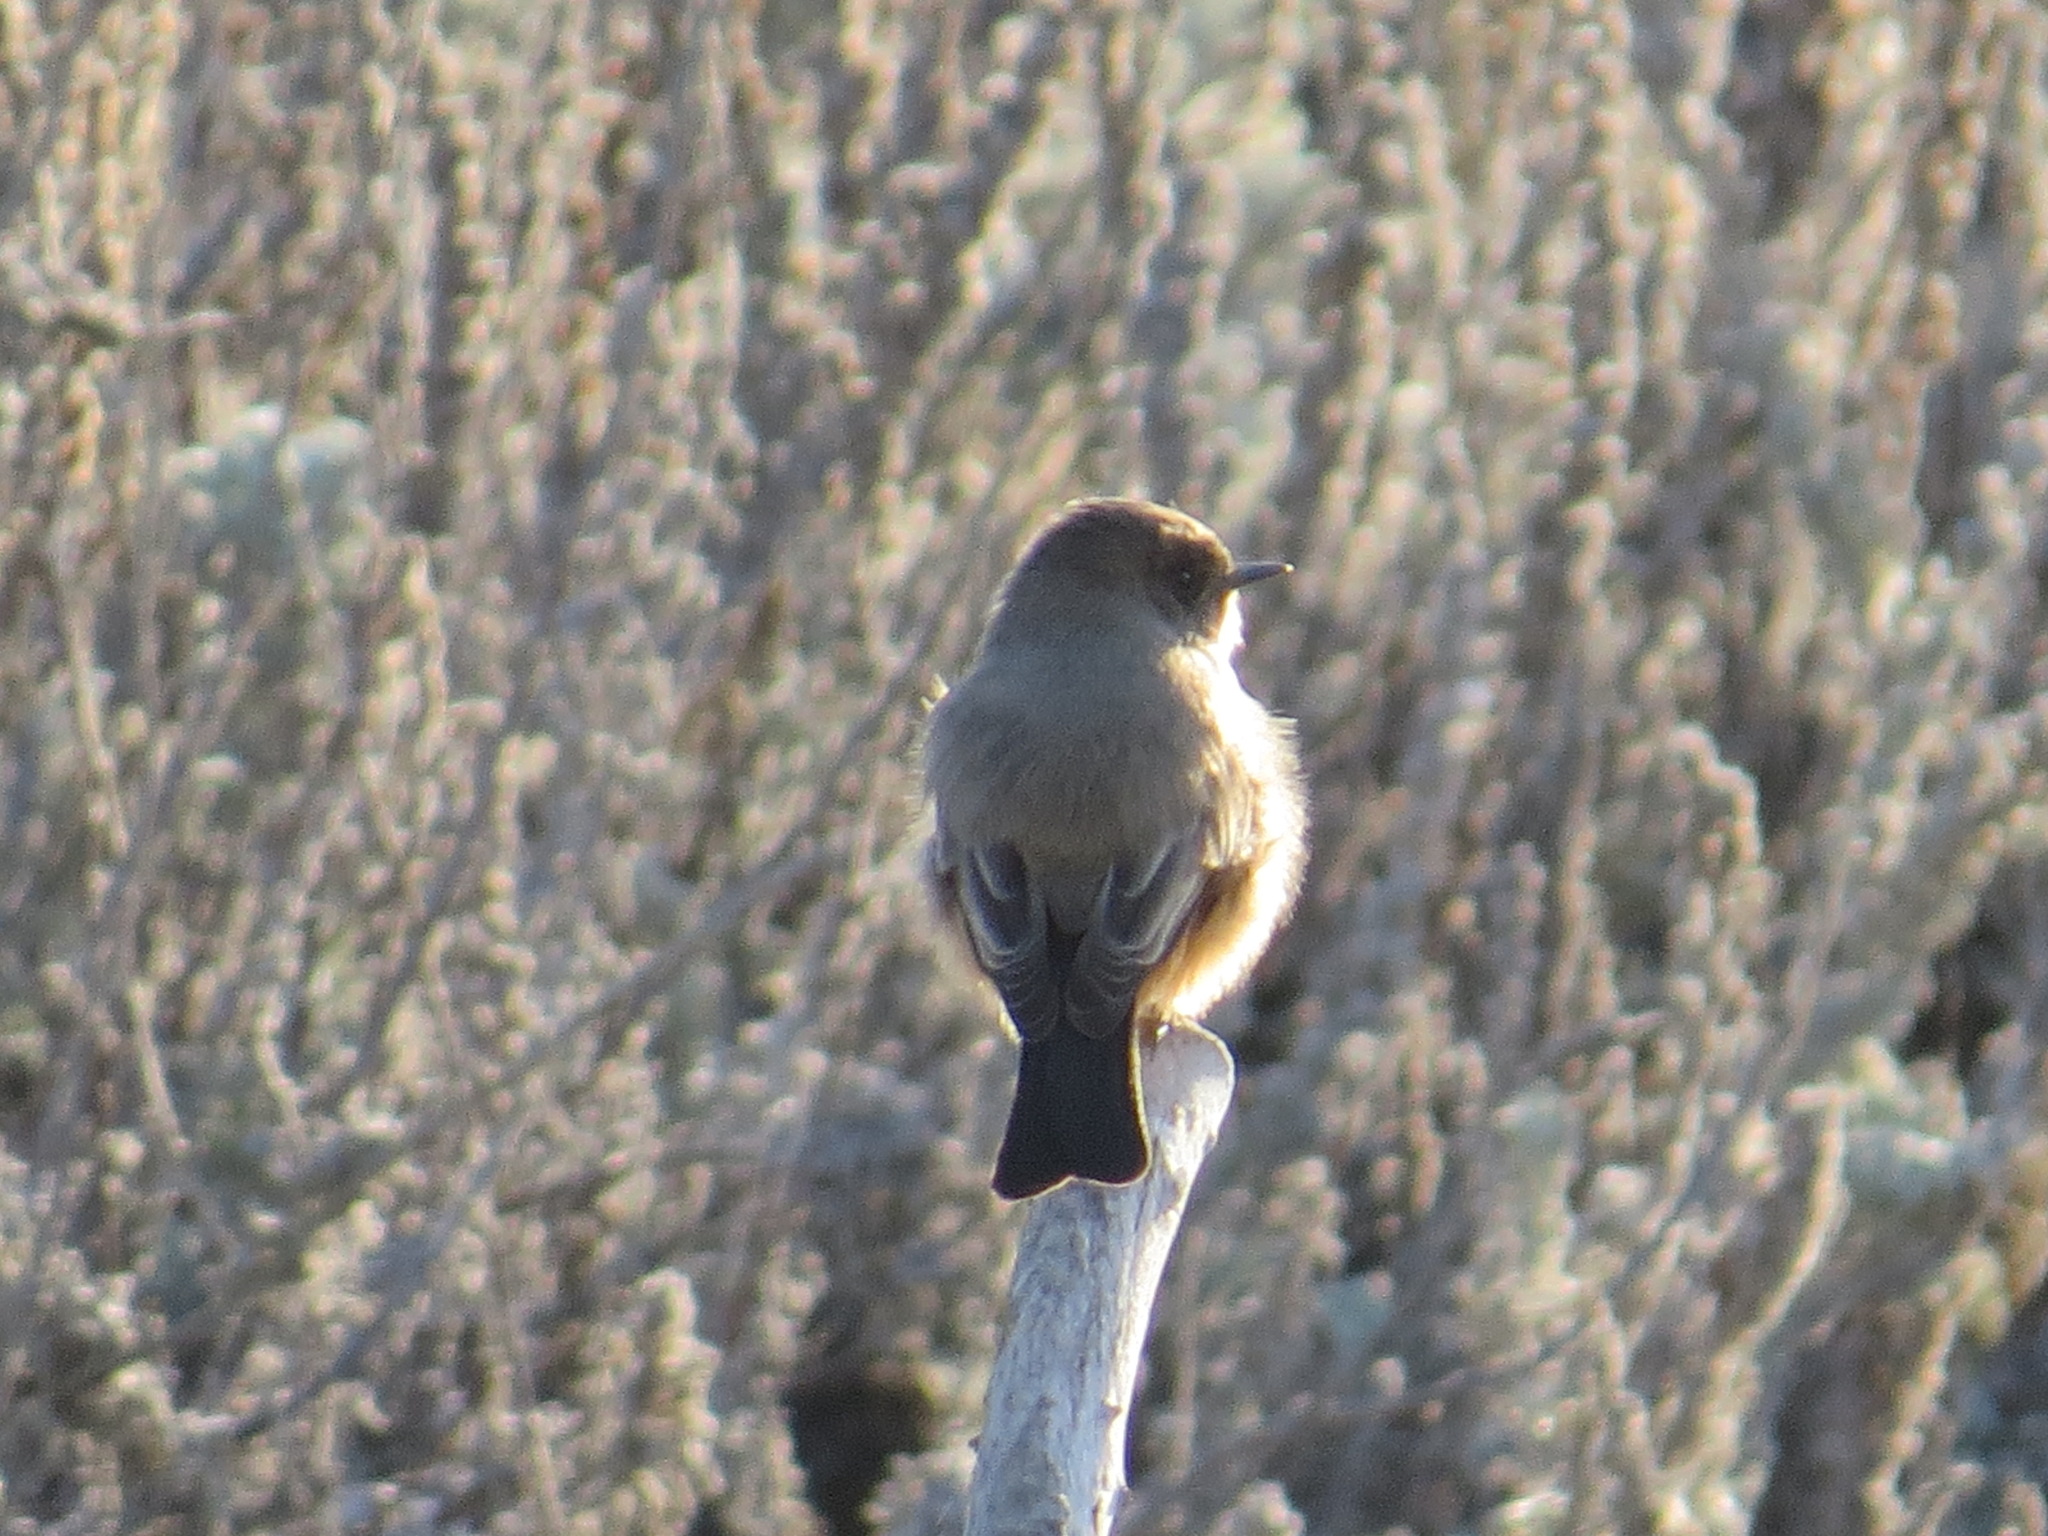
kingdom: Animalia
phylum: Chordata
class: Aves
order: Passeriformes
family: Tyrannidae
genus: Sayornis
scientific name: Sayornis saya
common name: Say's phoebe
